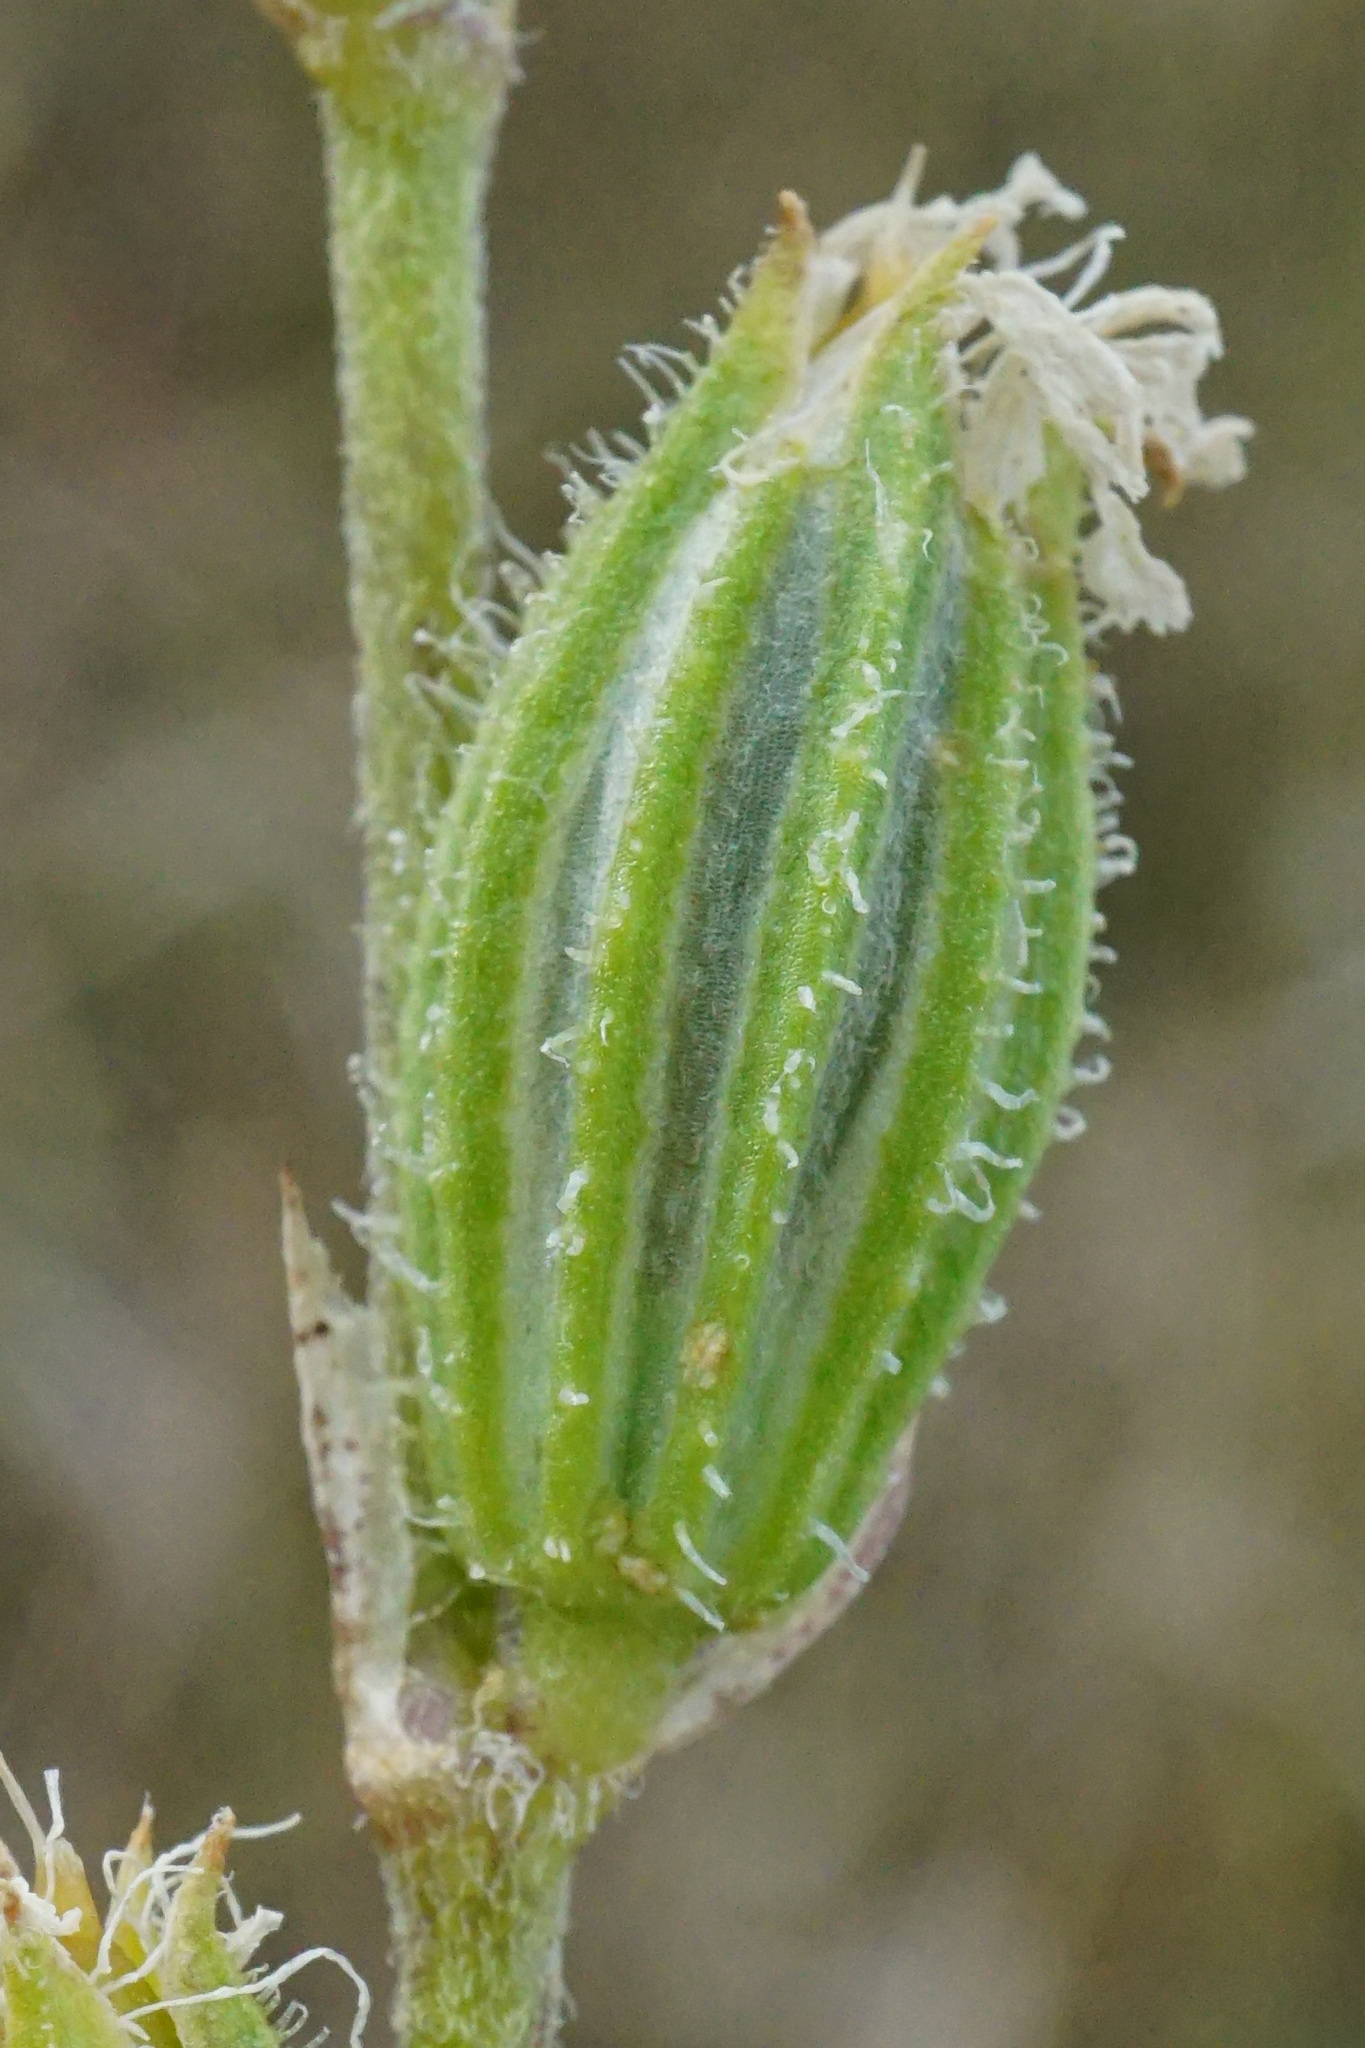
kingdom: Plantae
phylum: Tracheophyta
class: Magnoliopsida
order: Caryophyllales
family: Caryophyllaceae
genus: Silene
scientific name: Silene dichotoma
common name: Forked catchfly
